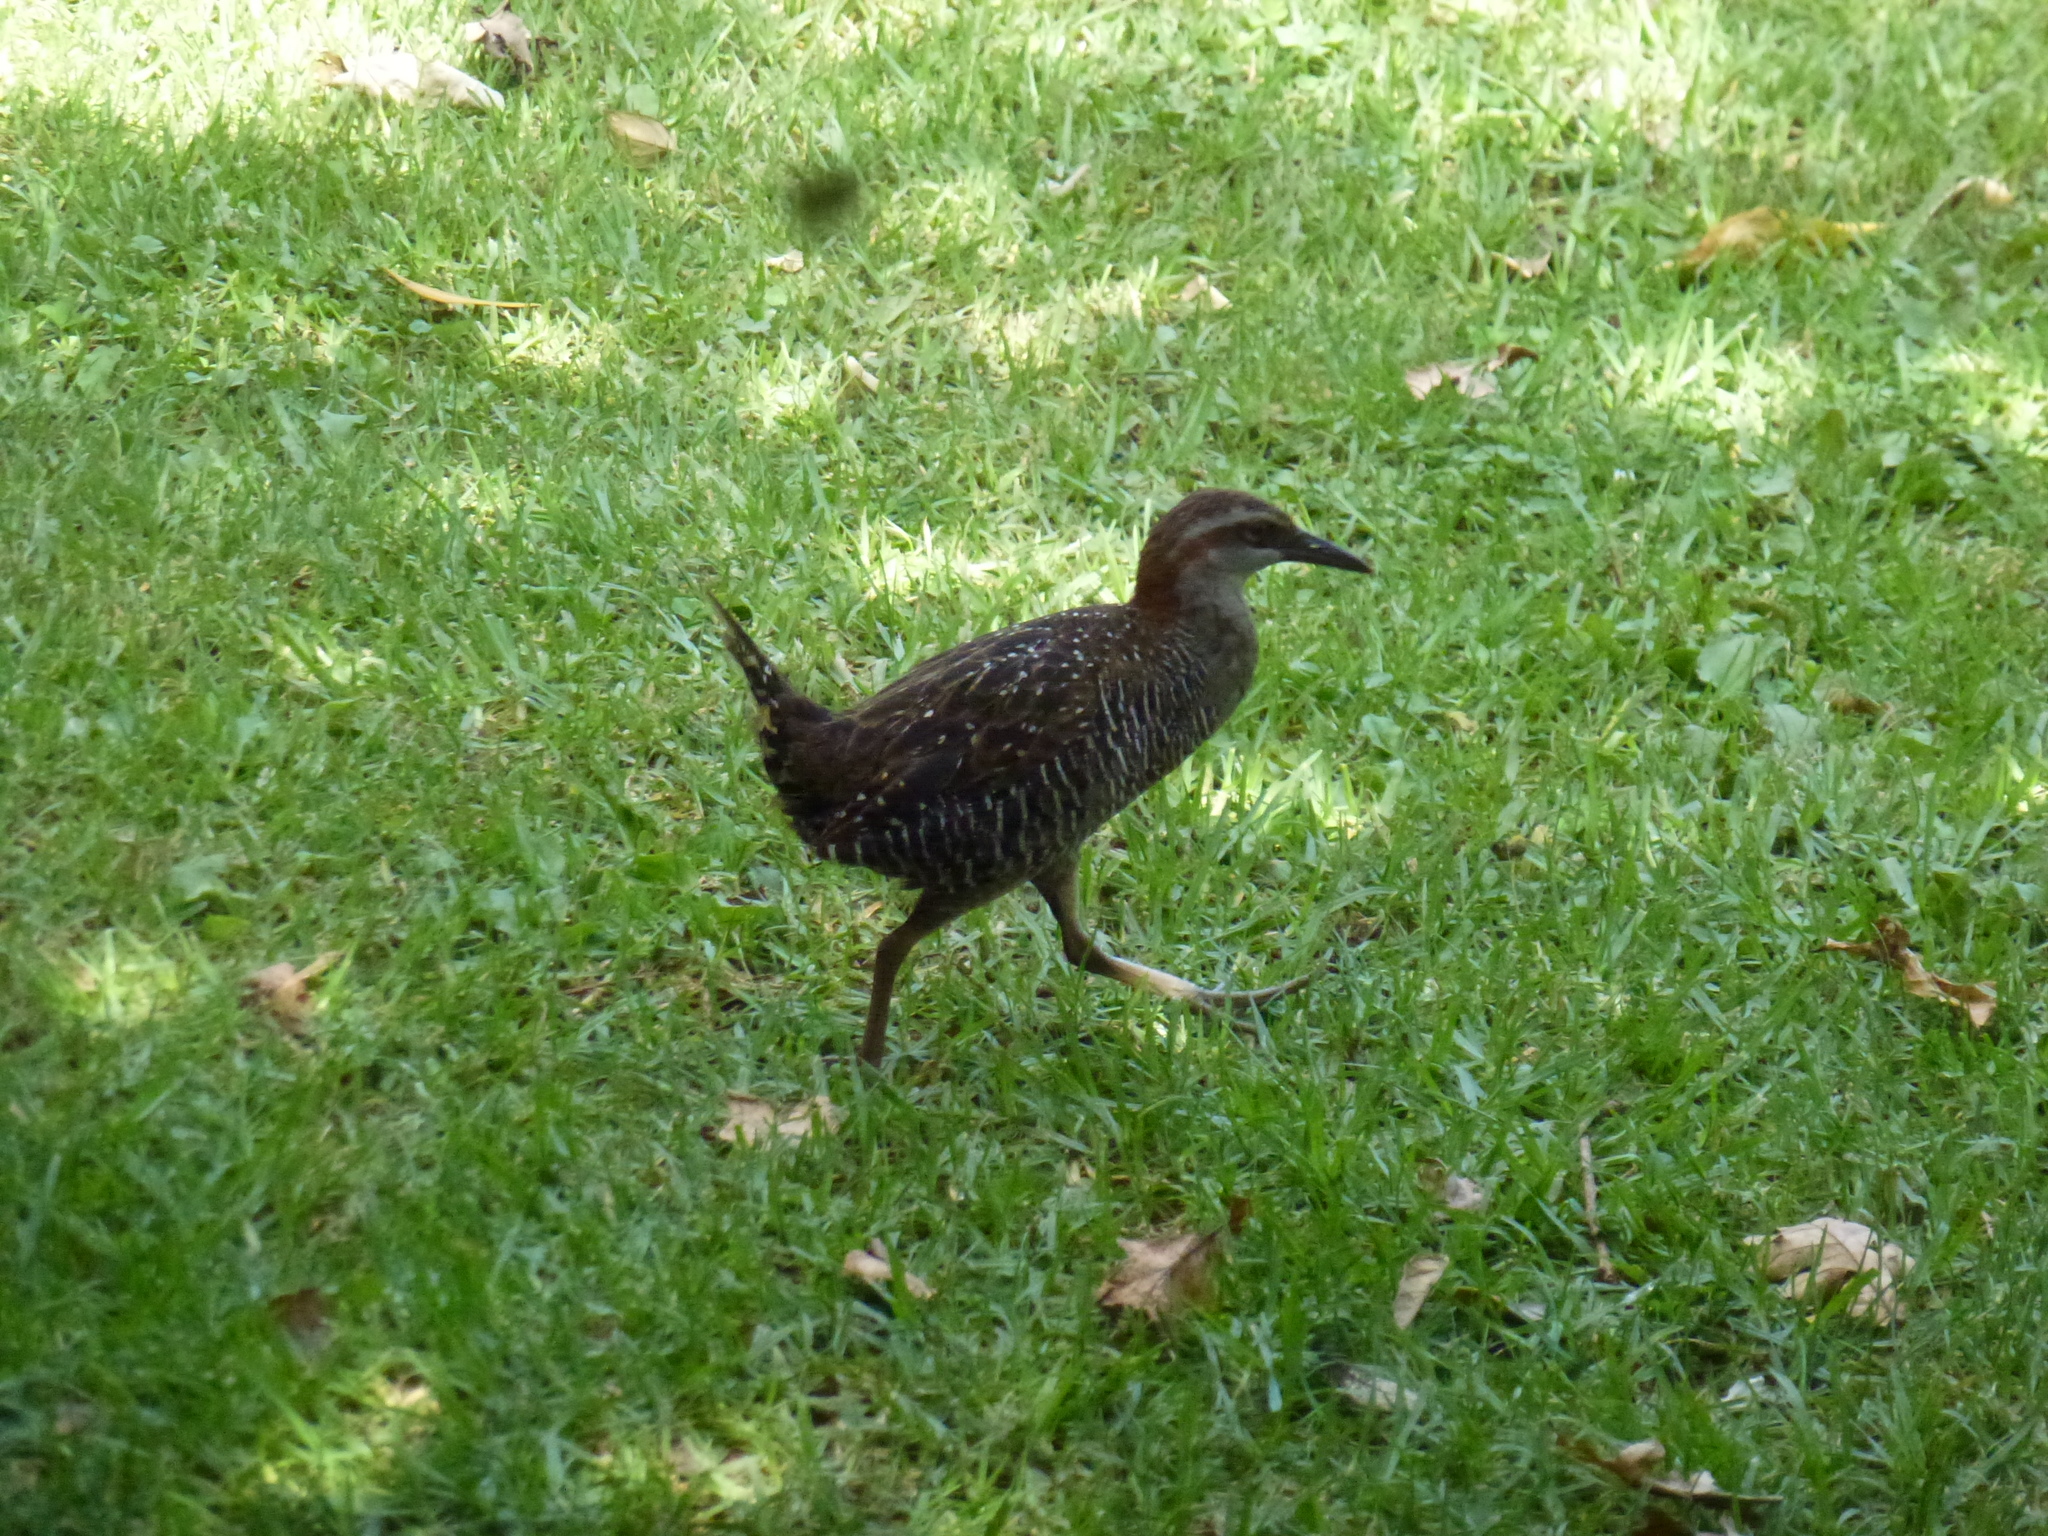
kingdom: Animalia
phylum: Chordata
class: Aves
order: Gruiformes
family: Rallidae
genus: Gallirallus
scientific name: Gallirallus philippensis
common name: Buff-banded rail
